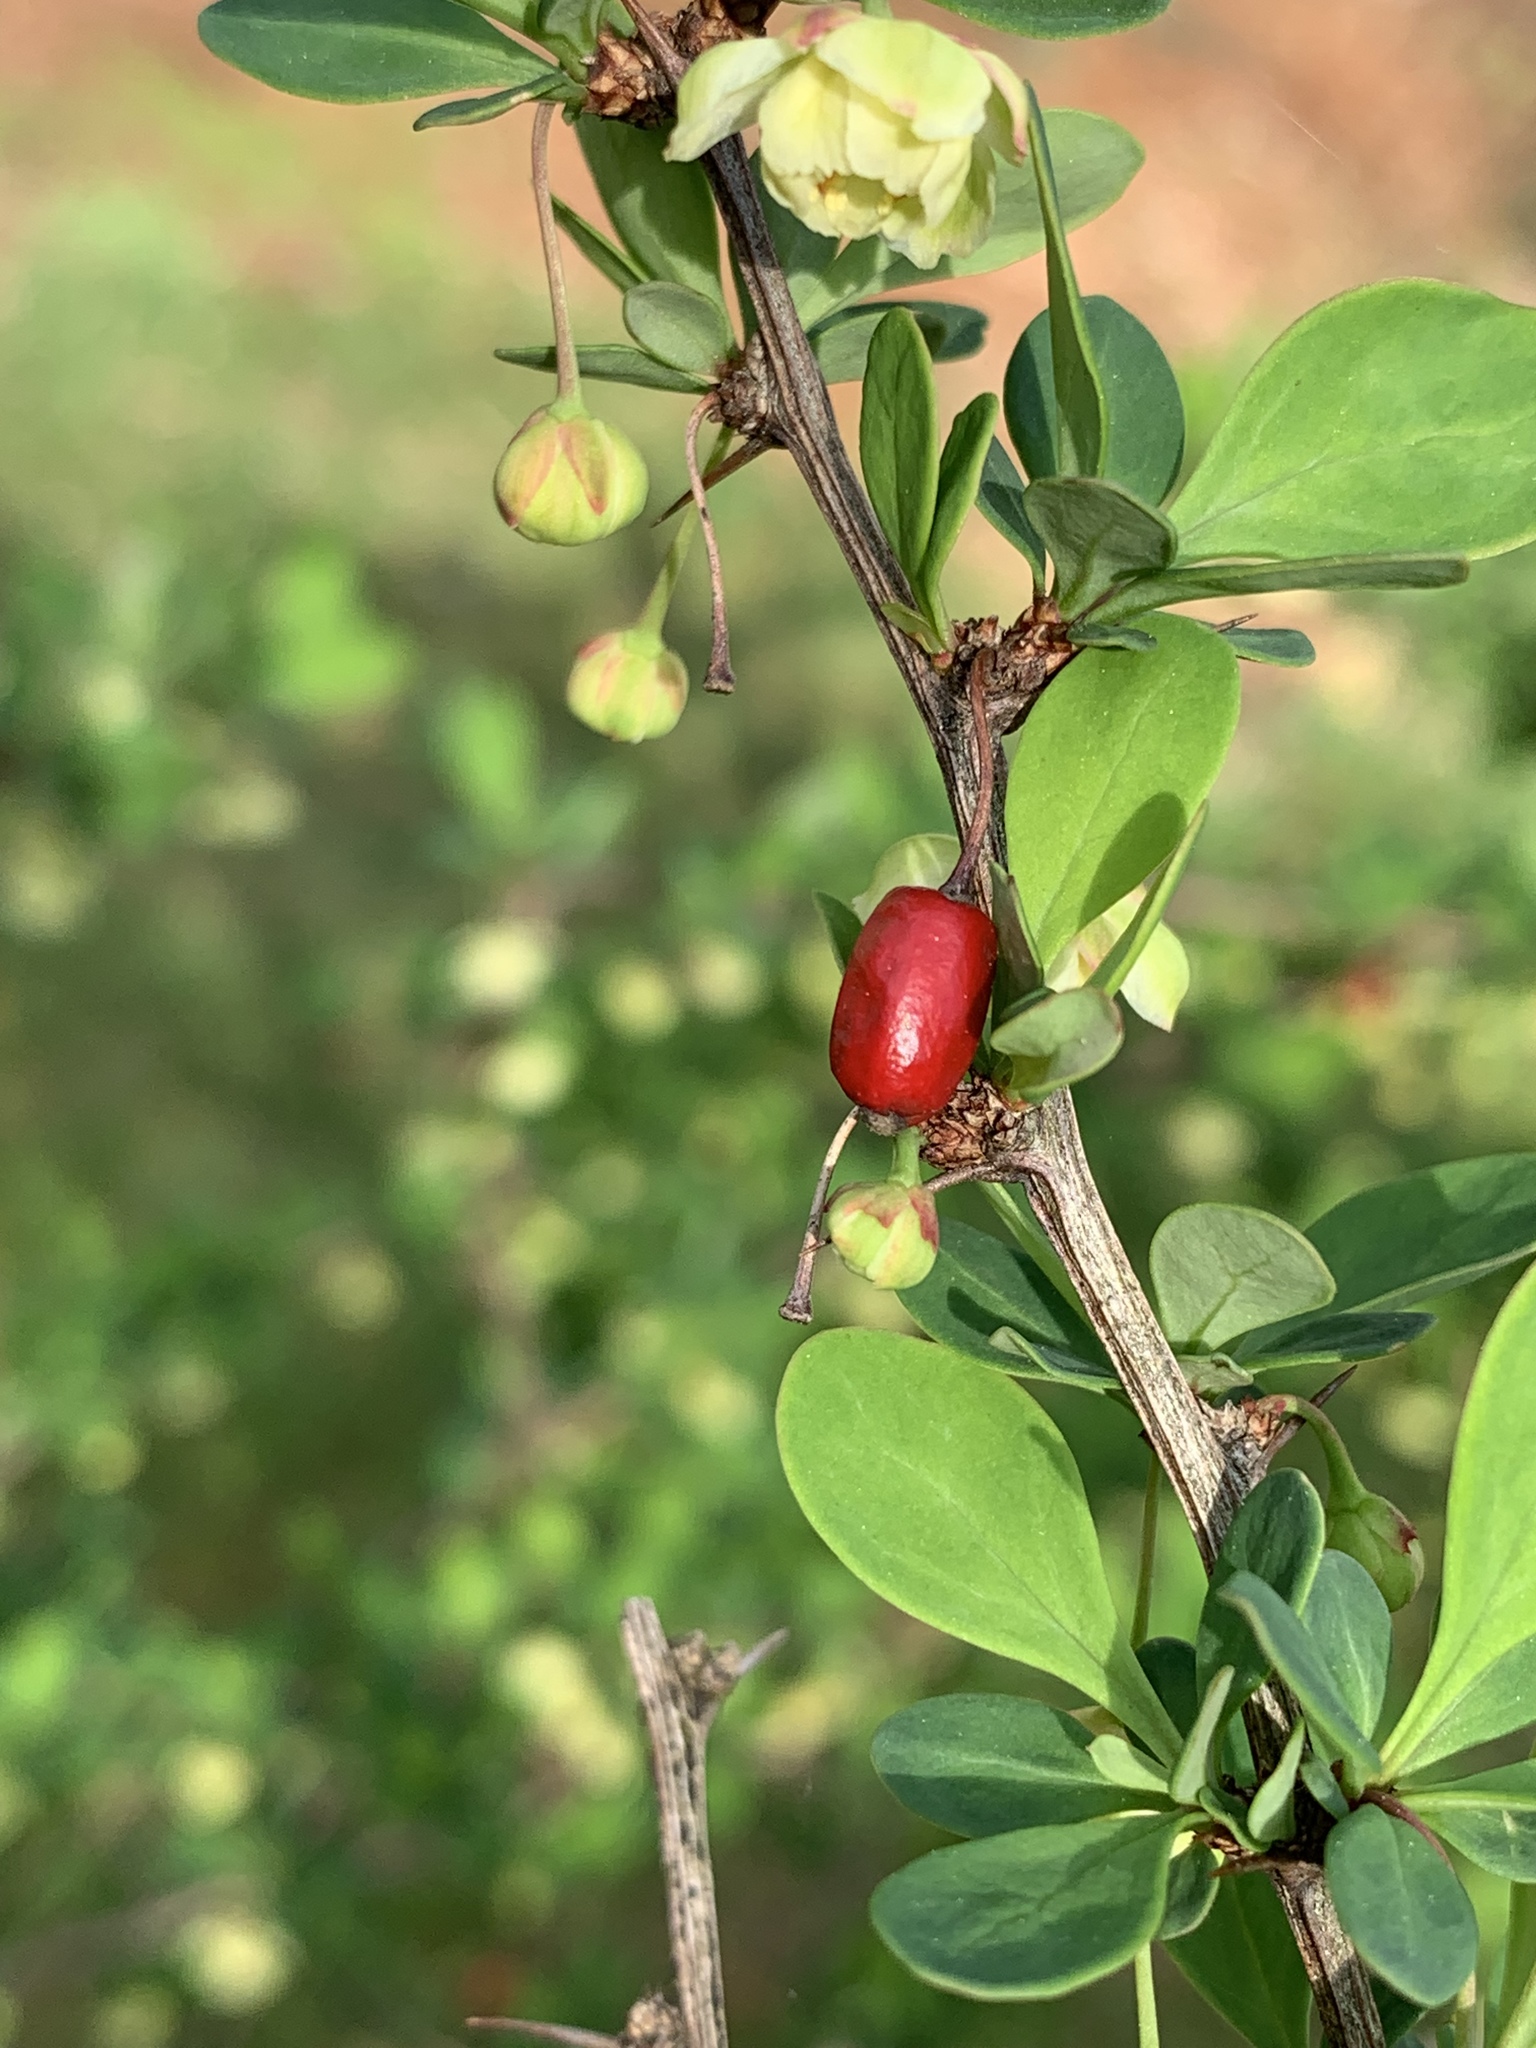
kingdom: Plantae
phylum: Tracheophyta
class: Magnoliopsida
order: Ranunculales
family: Berberidaceae
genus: Berberis
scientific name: Berberis thunbergii
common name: Japanese barberry
